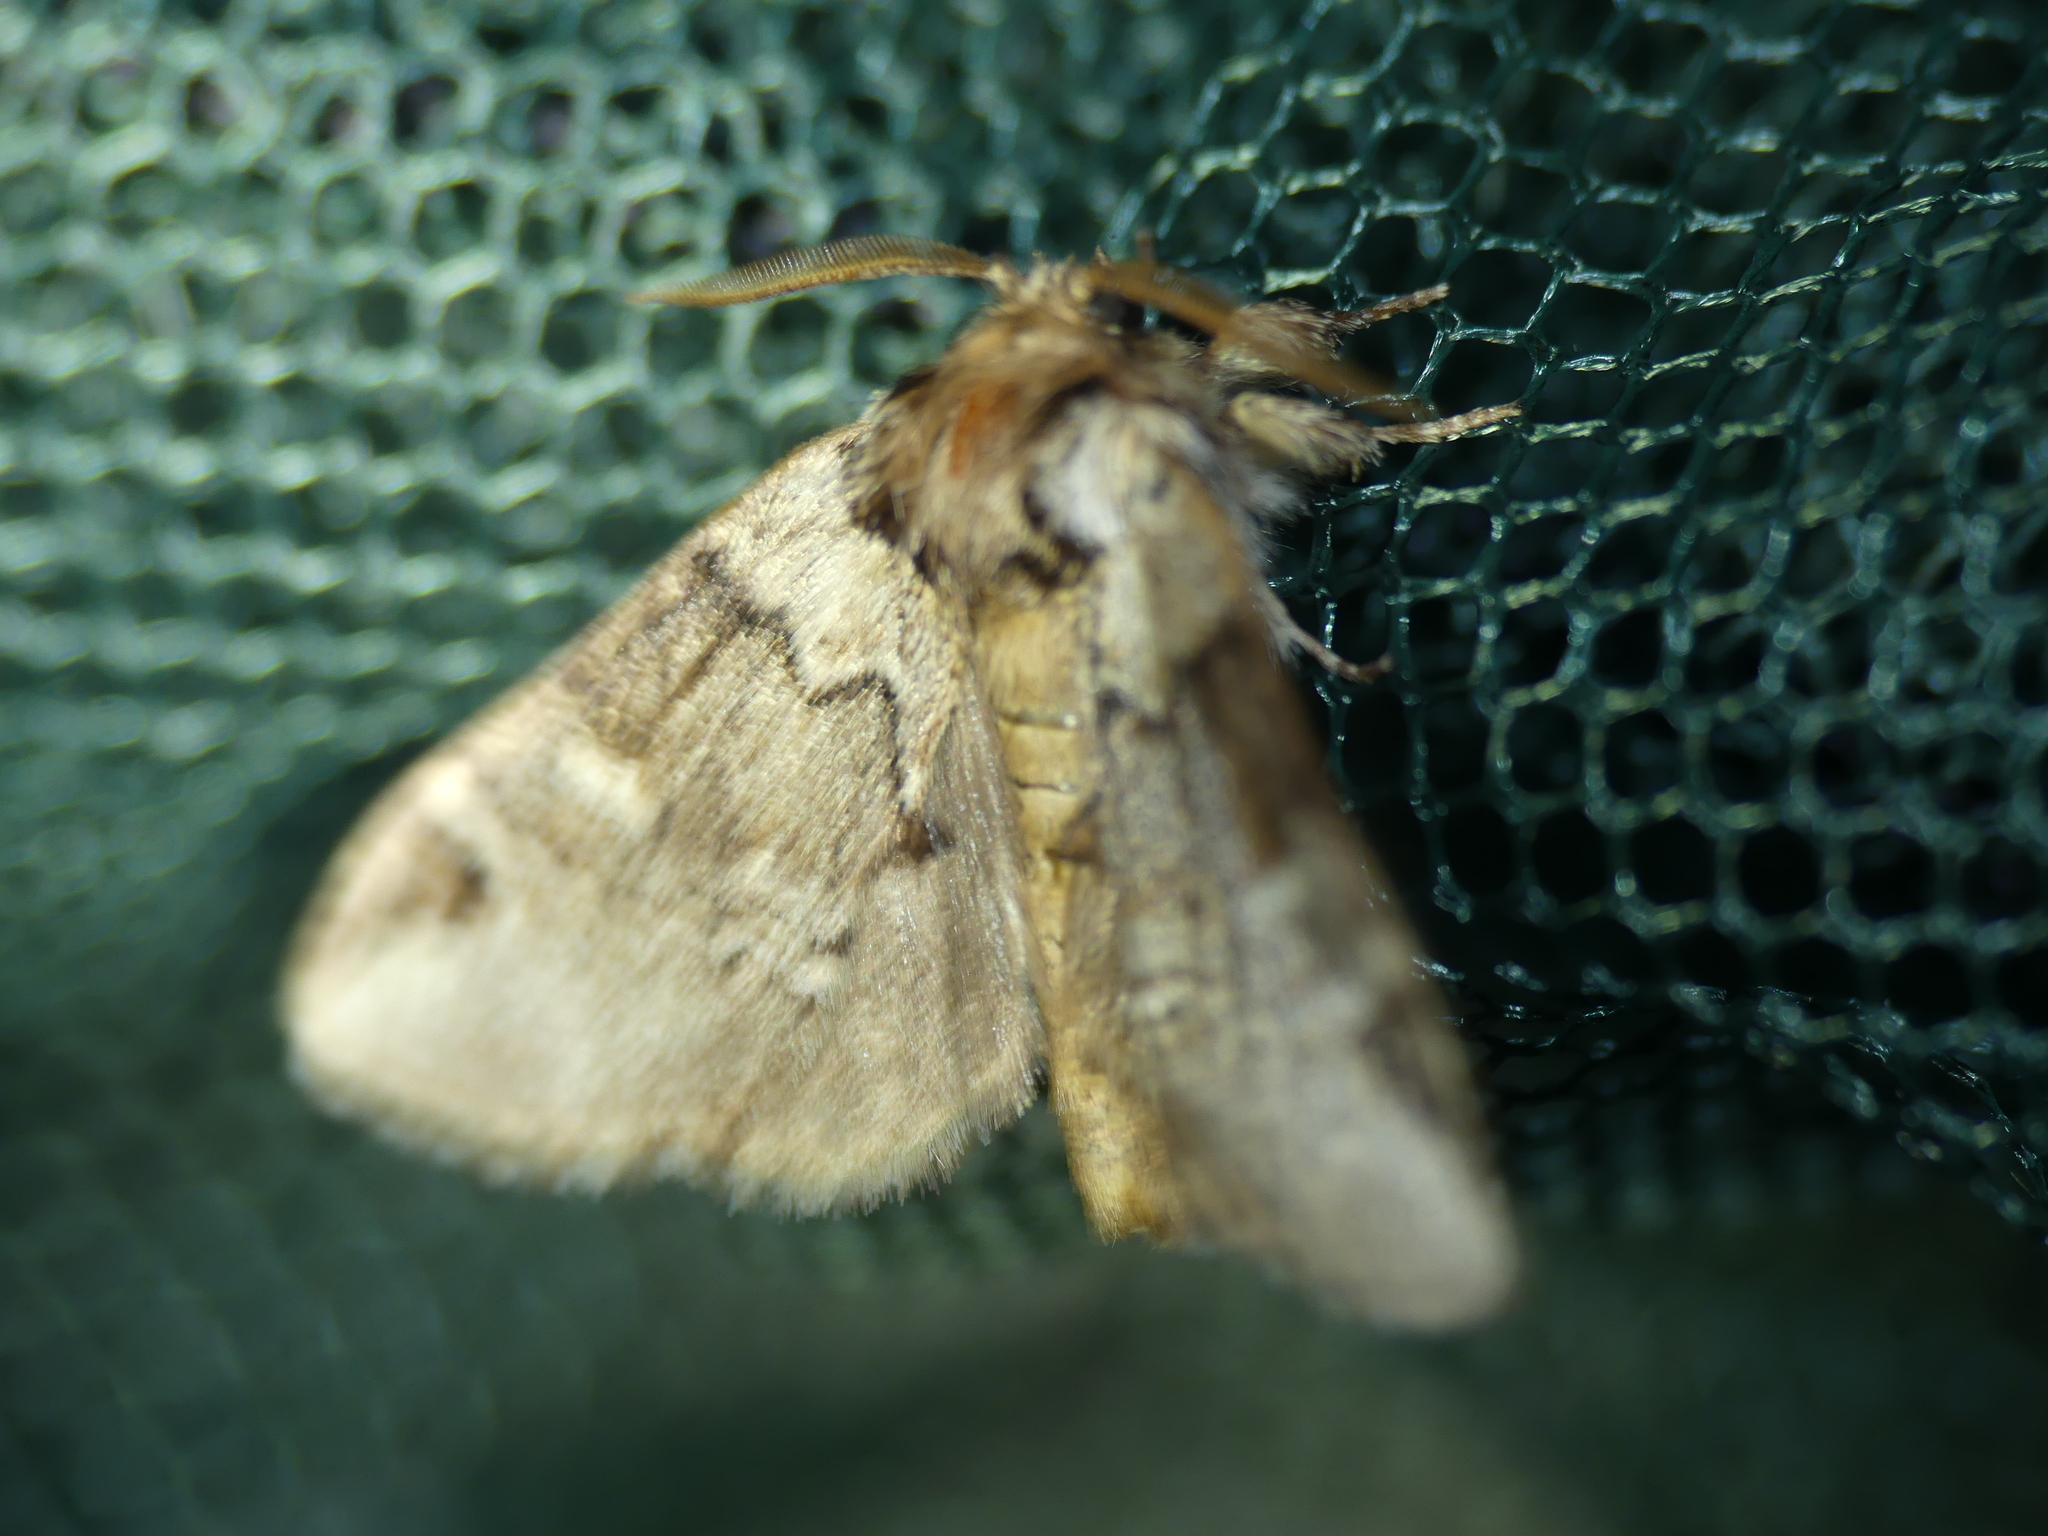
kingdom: Animalia
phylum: Arthropoda
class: Insecta
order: Lepidoptera
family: Notodontidae
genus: Drymonia
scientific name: Drymonia obliterata
